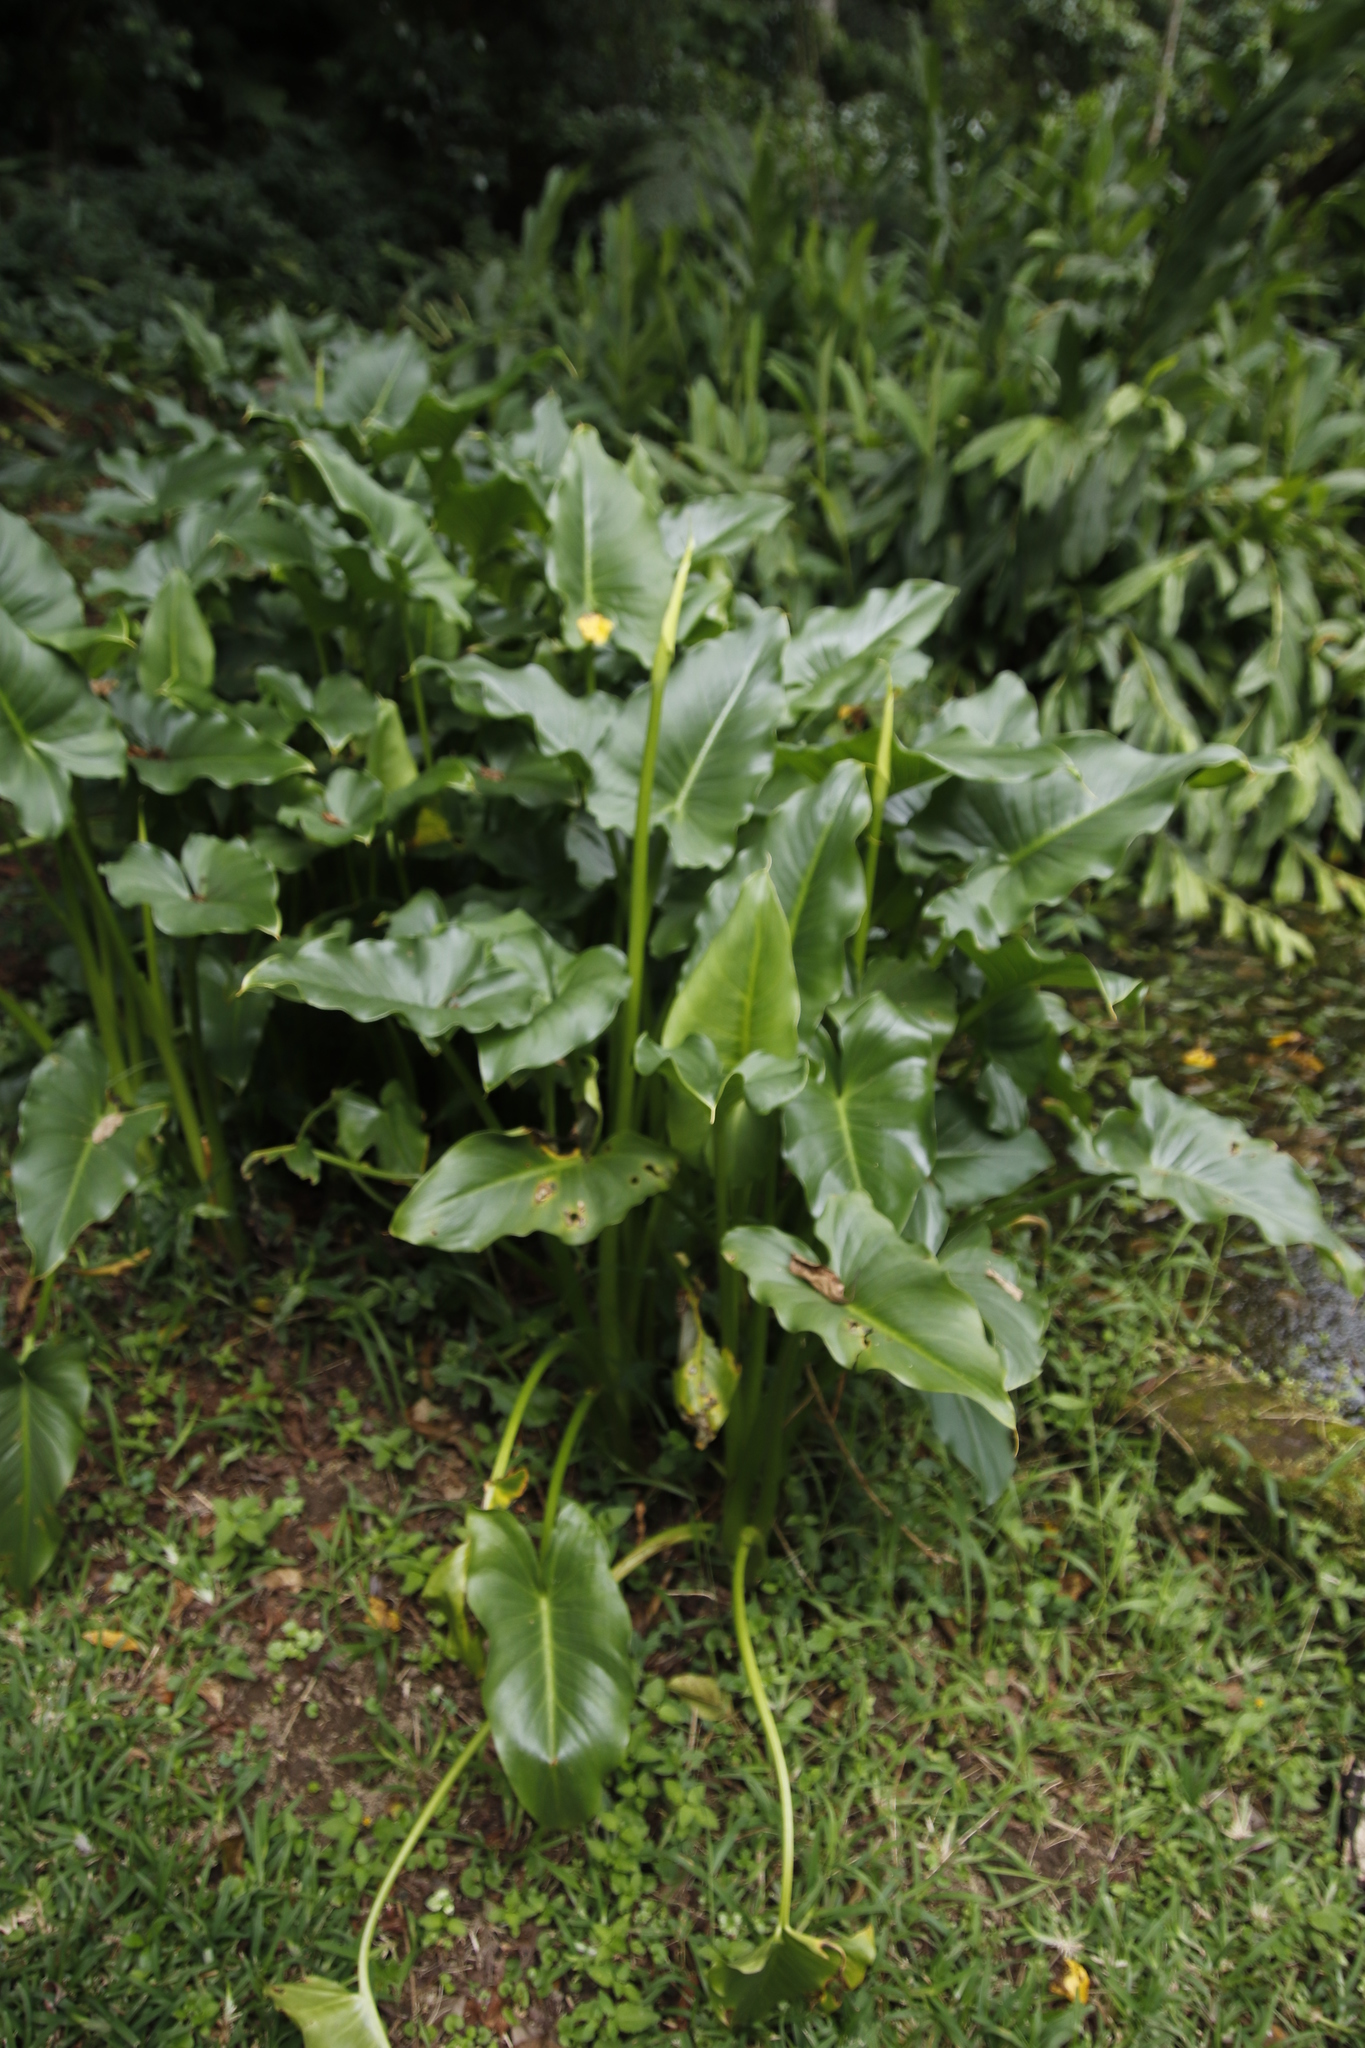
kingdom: Plantae
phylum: Tracheophyta
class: Liliopsida
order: Alismatales
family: Araceae
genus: Zantedeschia
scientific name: Zantedeschia aethiopica
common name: Altar-lily
